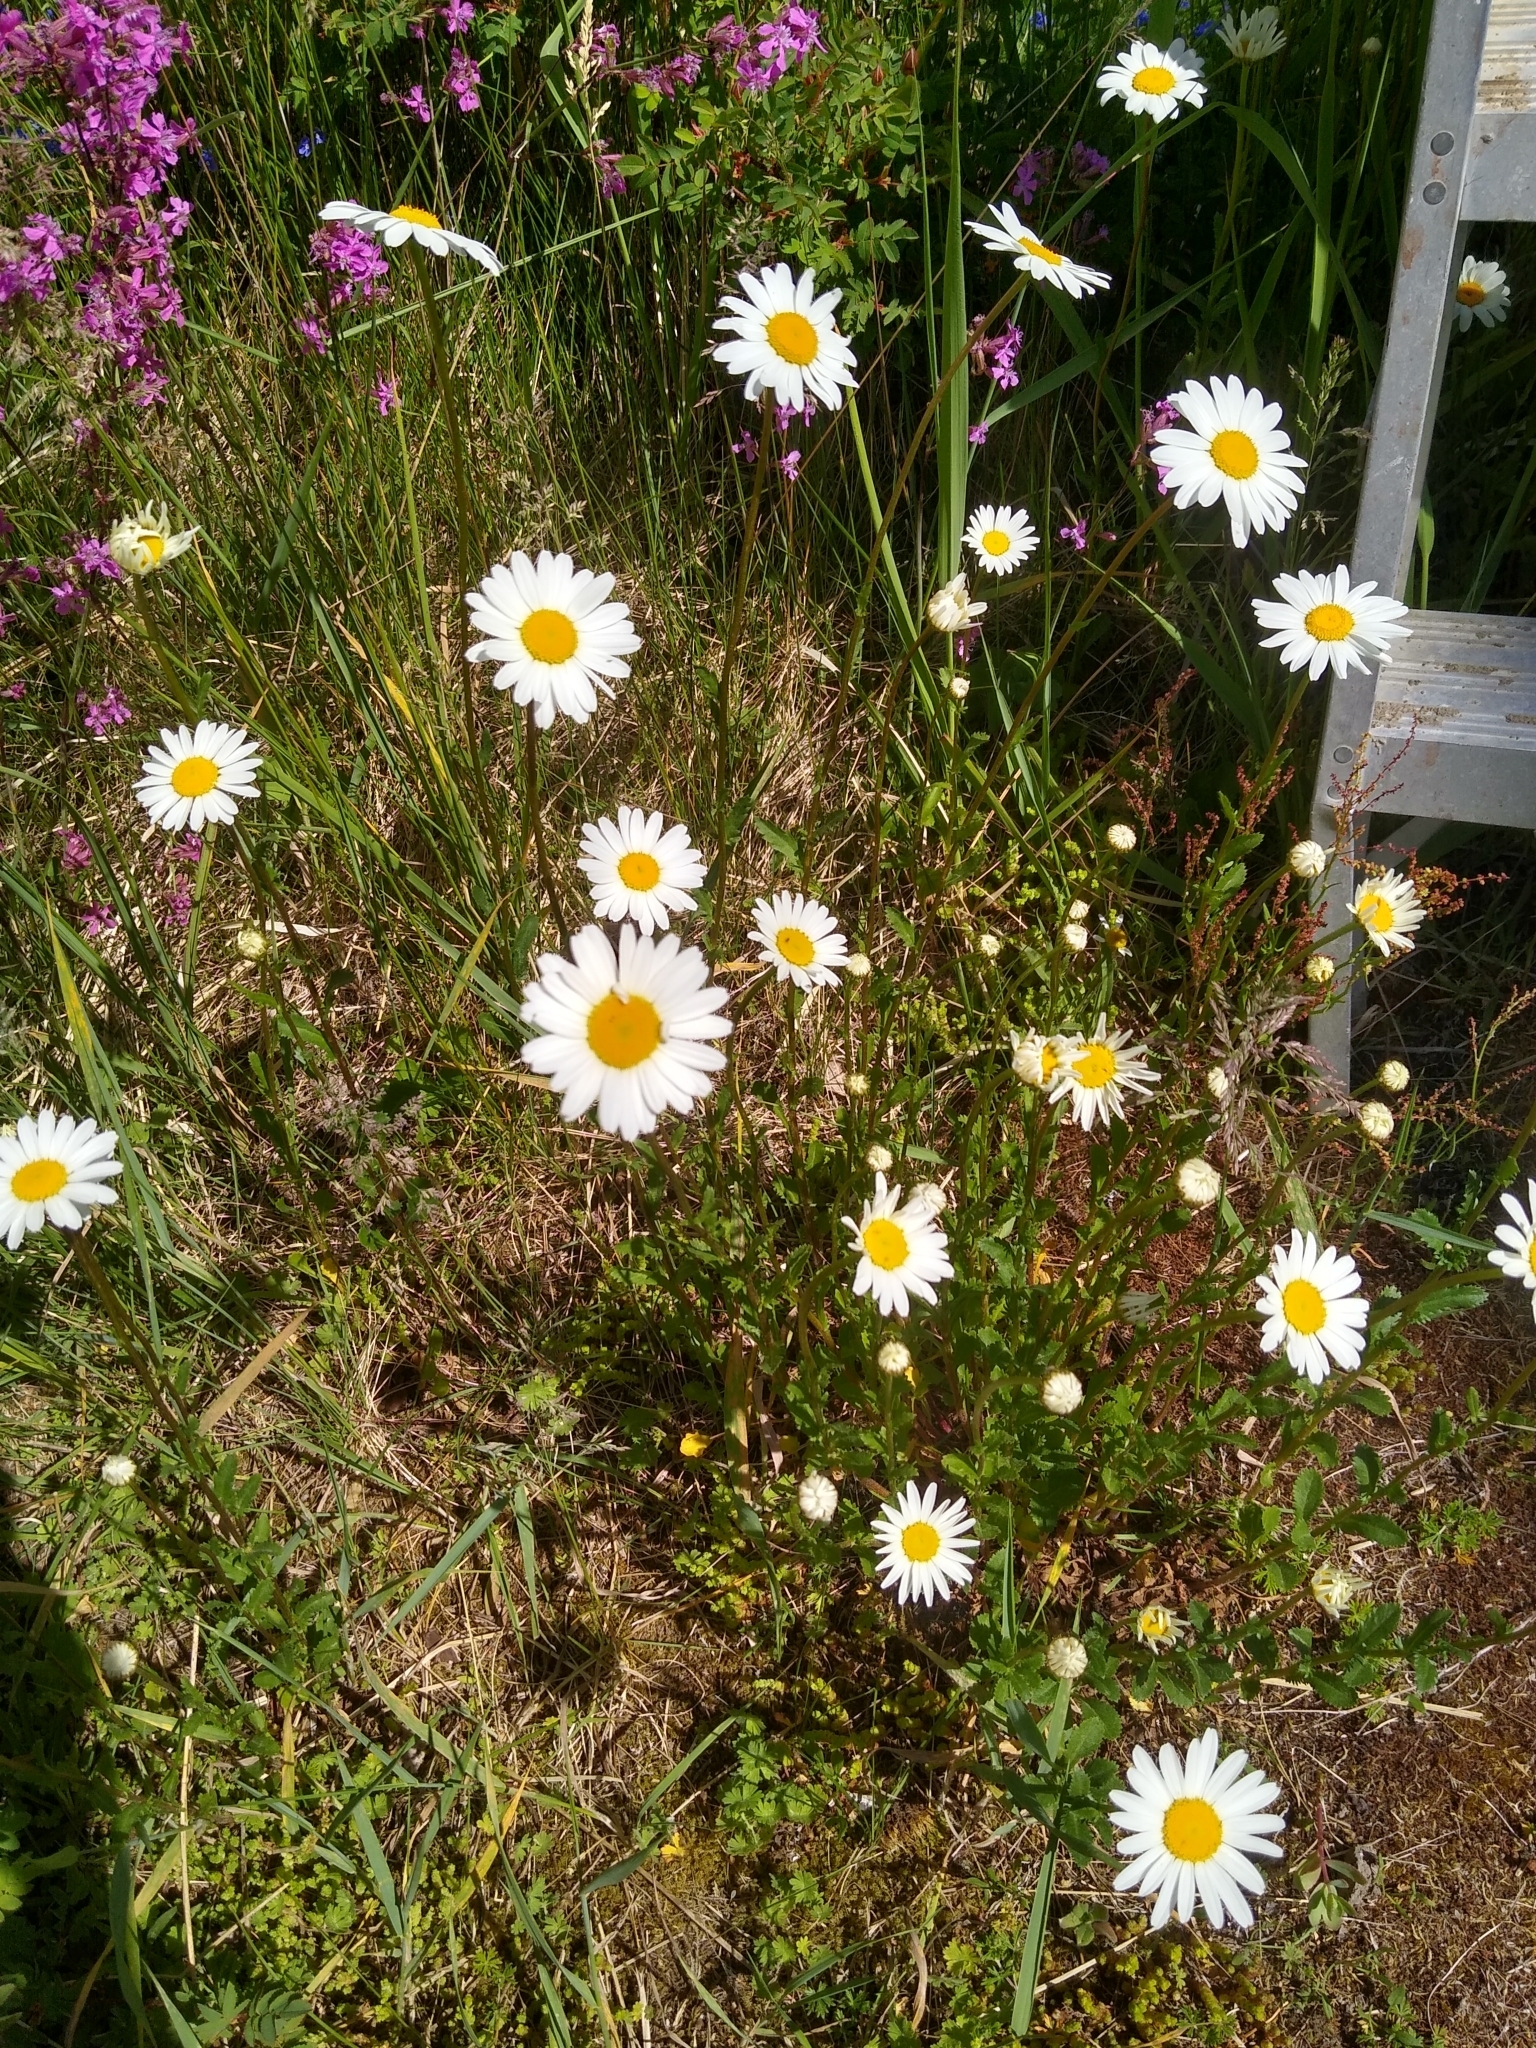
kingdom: Plantae
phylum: Tracheophyta
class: Magnoliopsida
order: Asterales
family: Asteraceae
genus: Leucanthemum
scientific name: Leucanthemum vulgare
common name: Oxeye daisy
